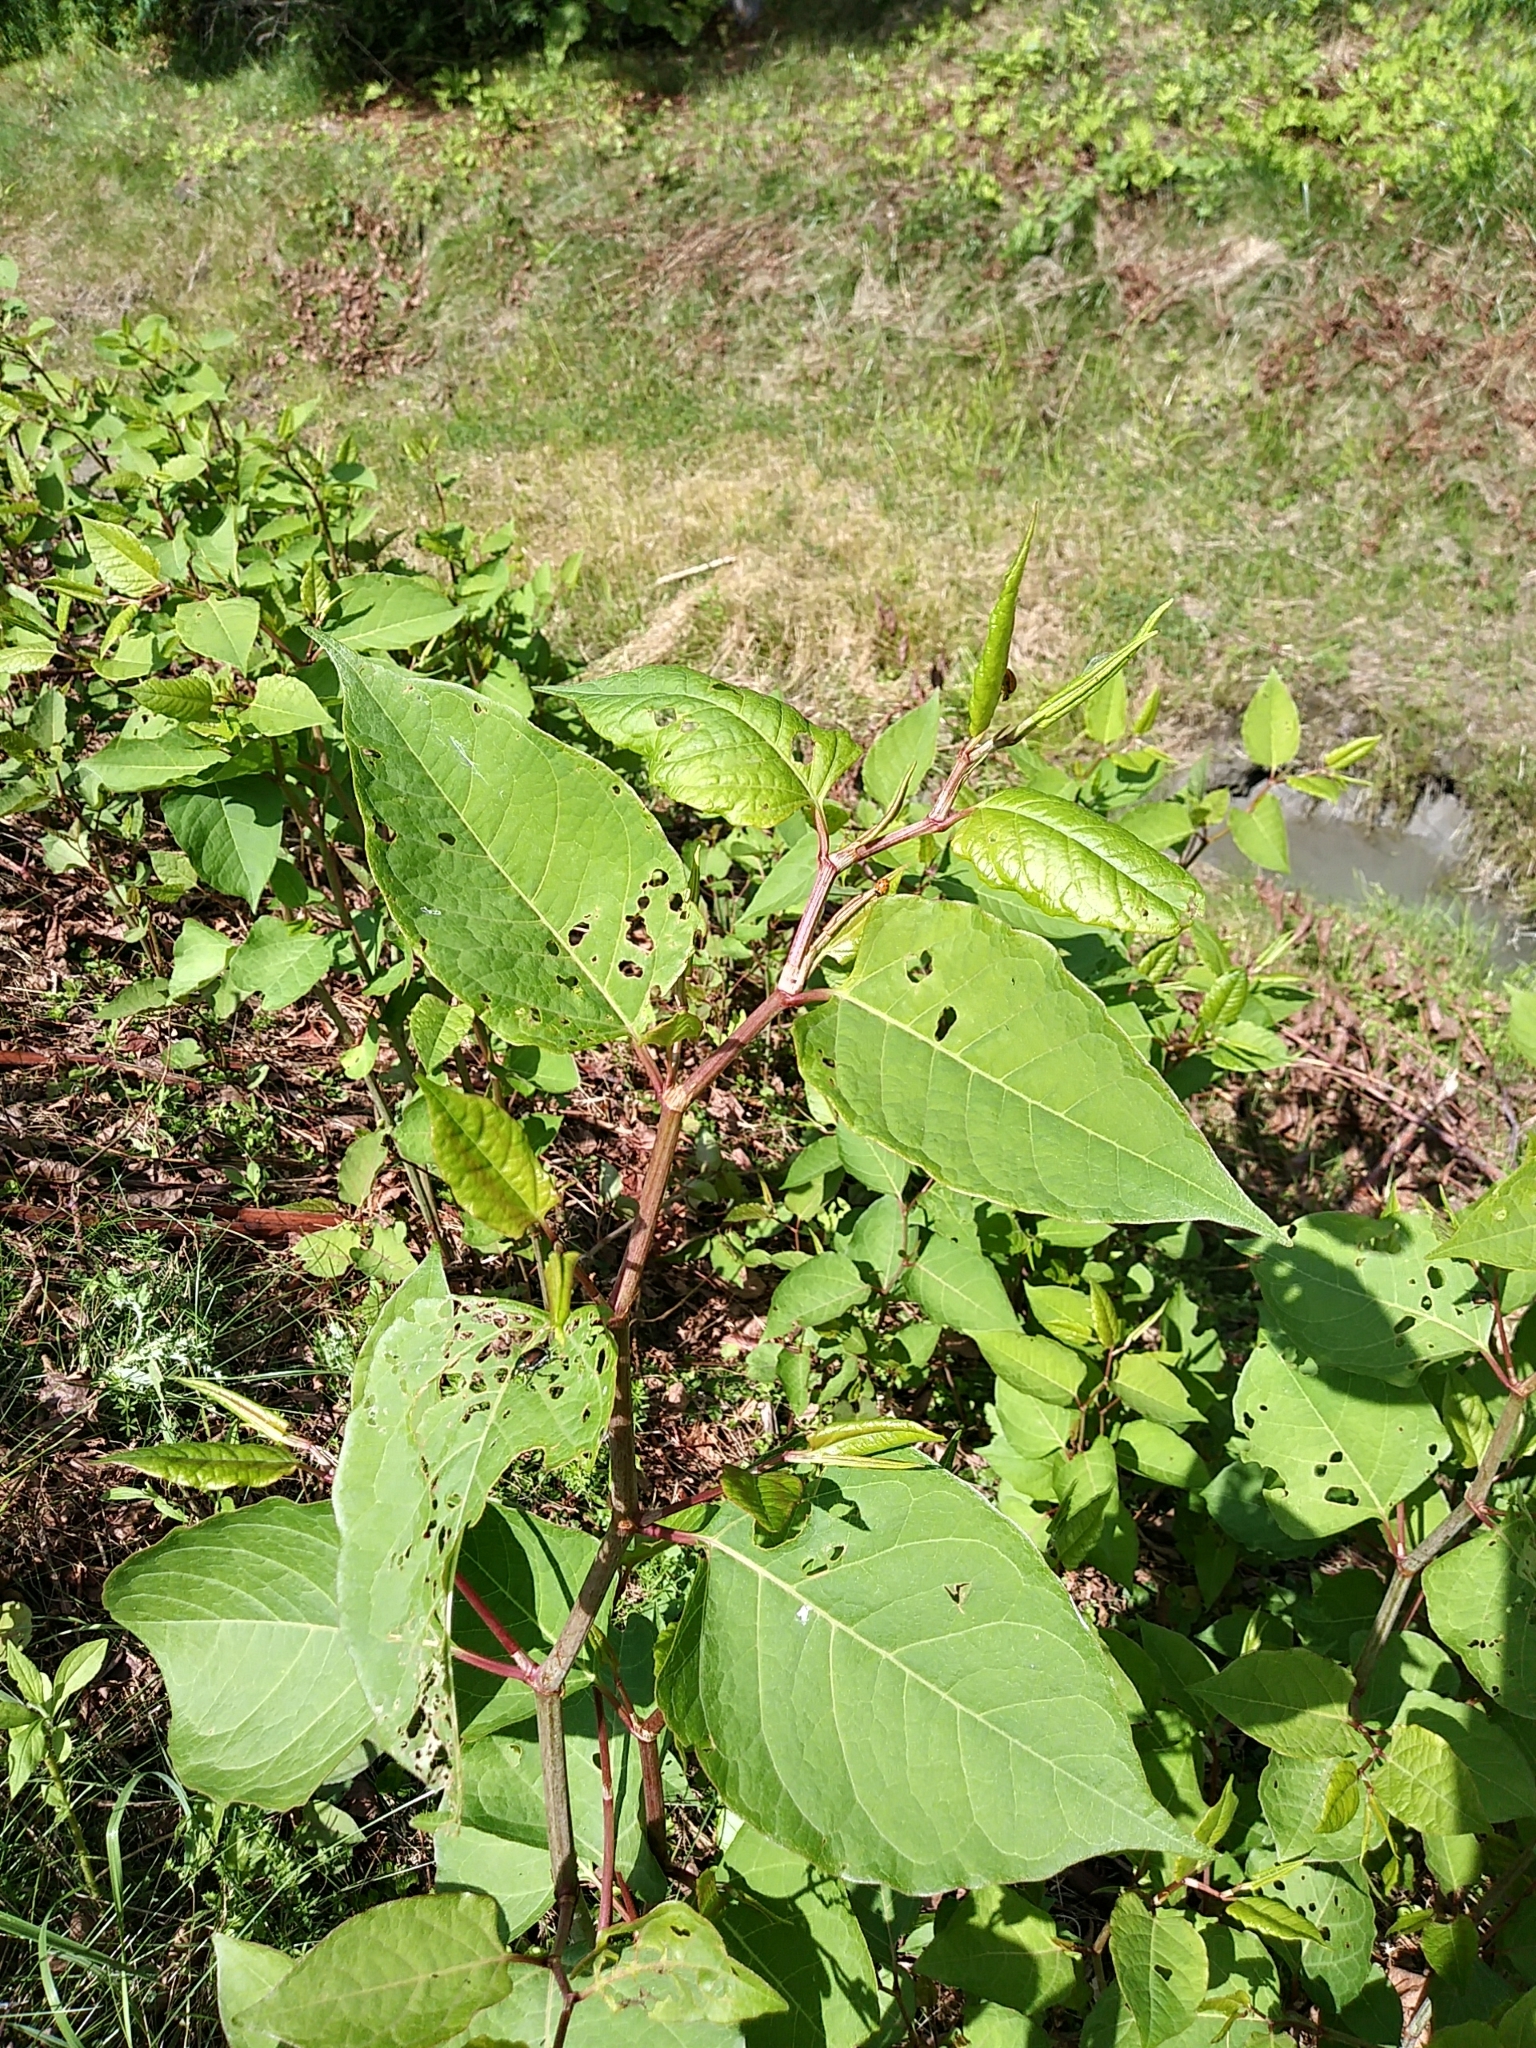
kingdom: Plantae
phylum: Tracheophyta
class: Magnoliopsida
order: Caryophyllales
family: Polygonaceae
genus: Reynoutria
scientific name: Reynoutria japonica
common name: Japanese knotweed
